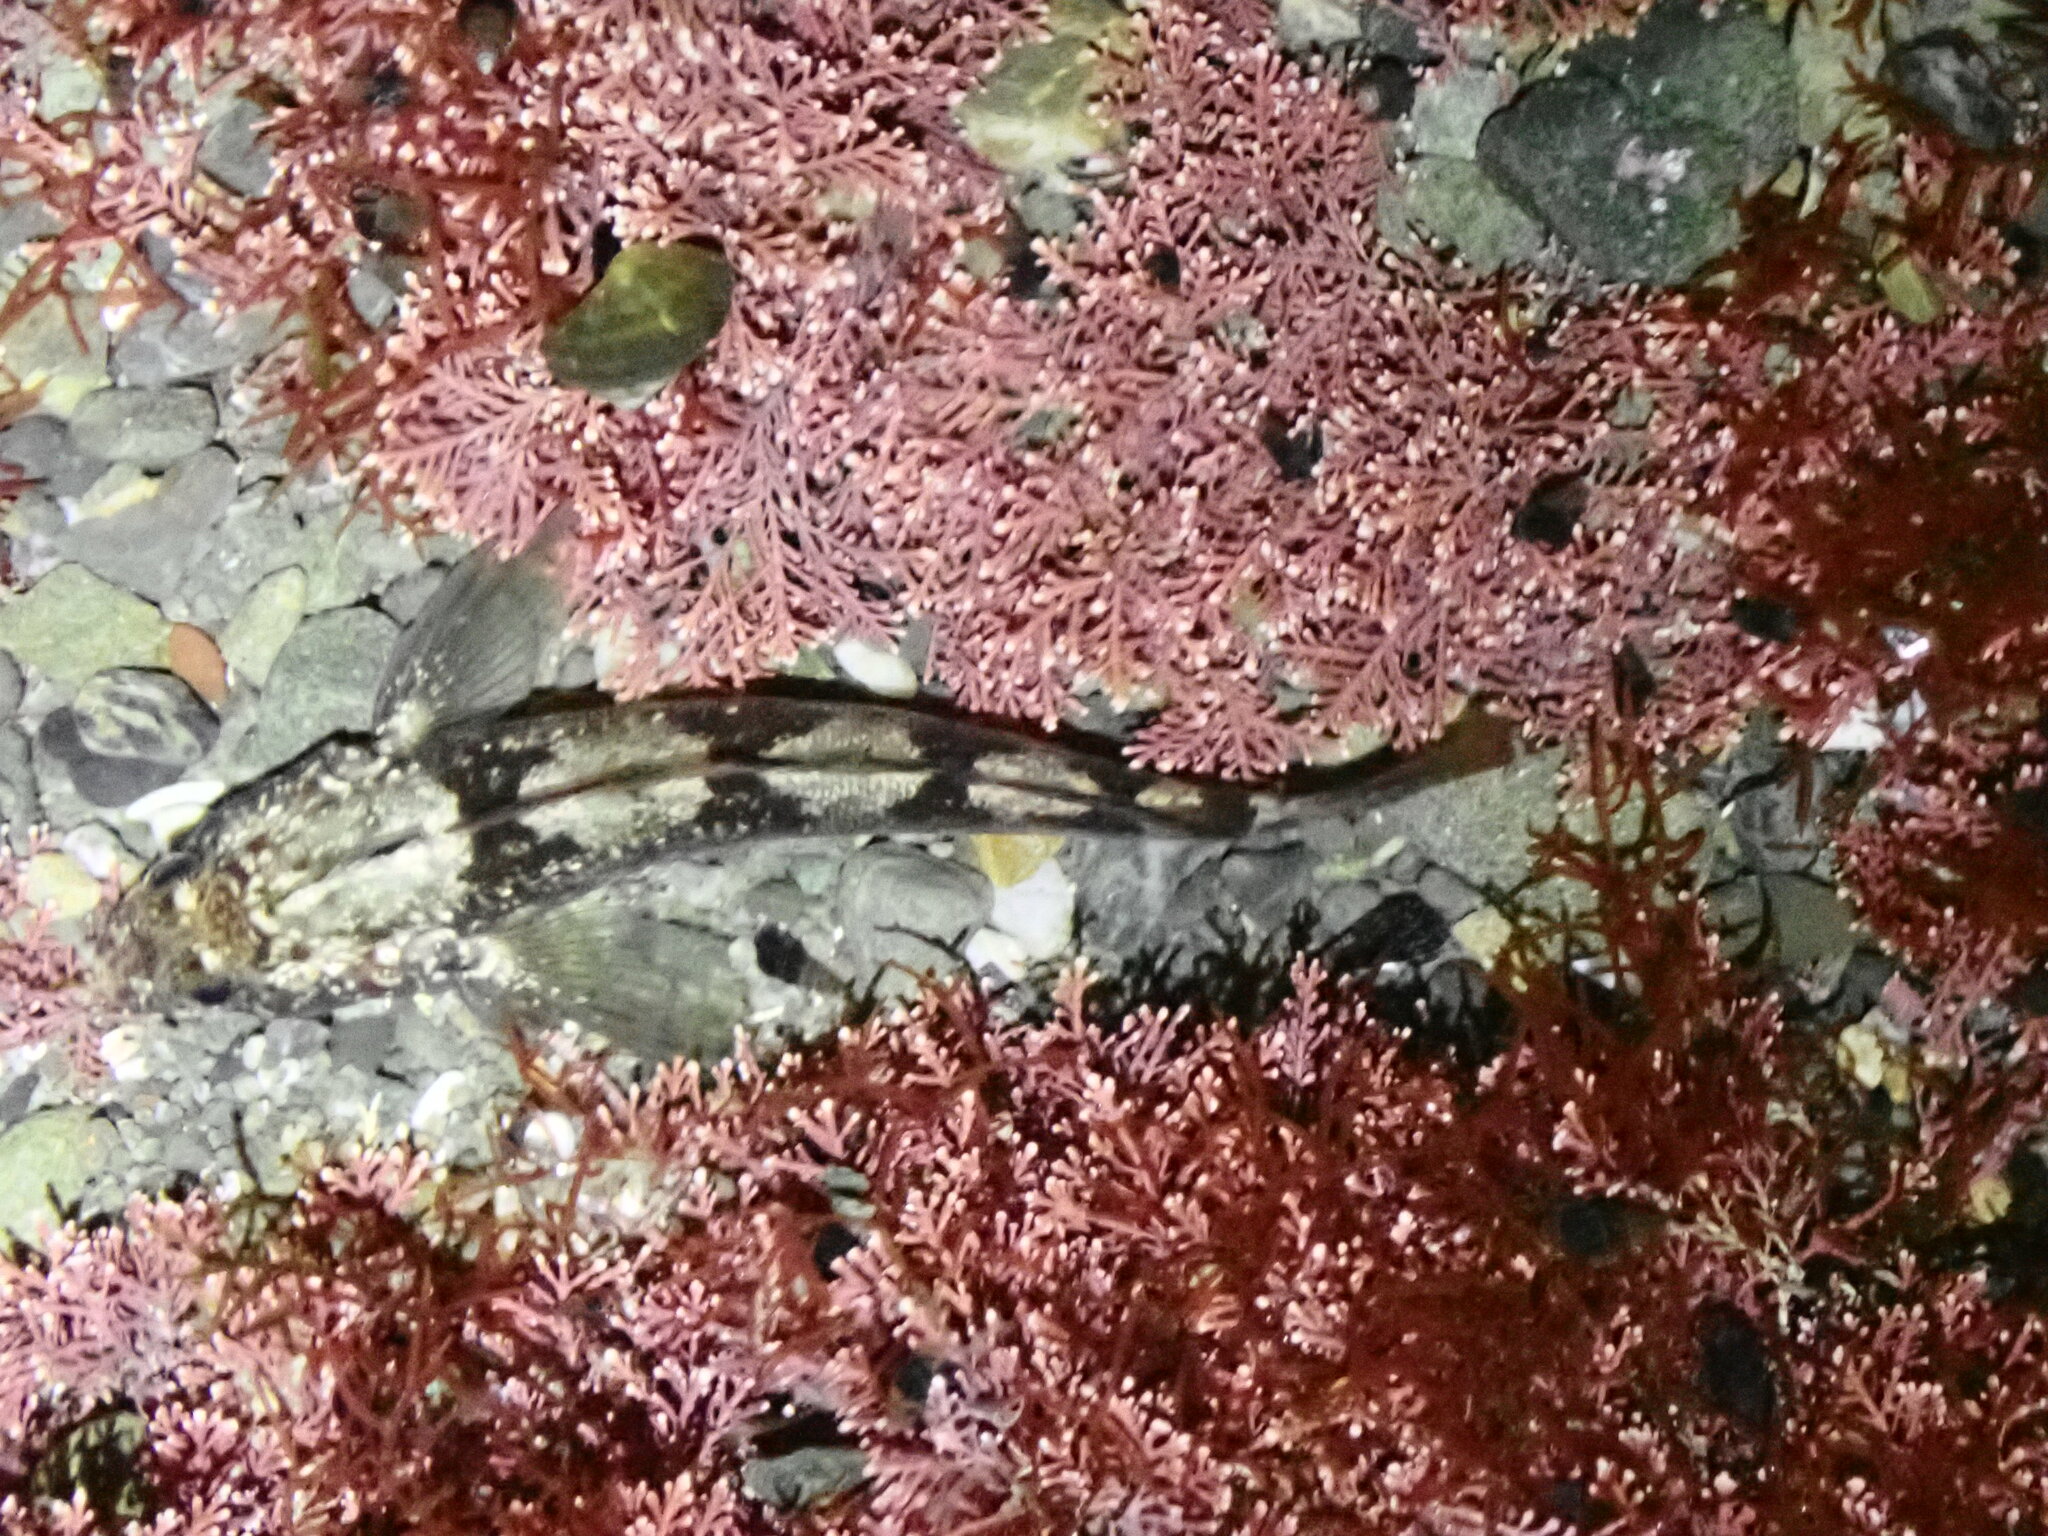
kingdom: Animalia
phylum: Chordata
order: Perciformes
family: Tripterygiidae
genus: Forsterygion
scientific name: Forsterygion gymnotum
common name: Multifid-tentacled robust triplefin
